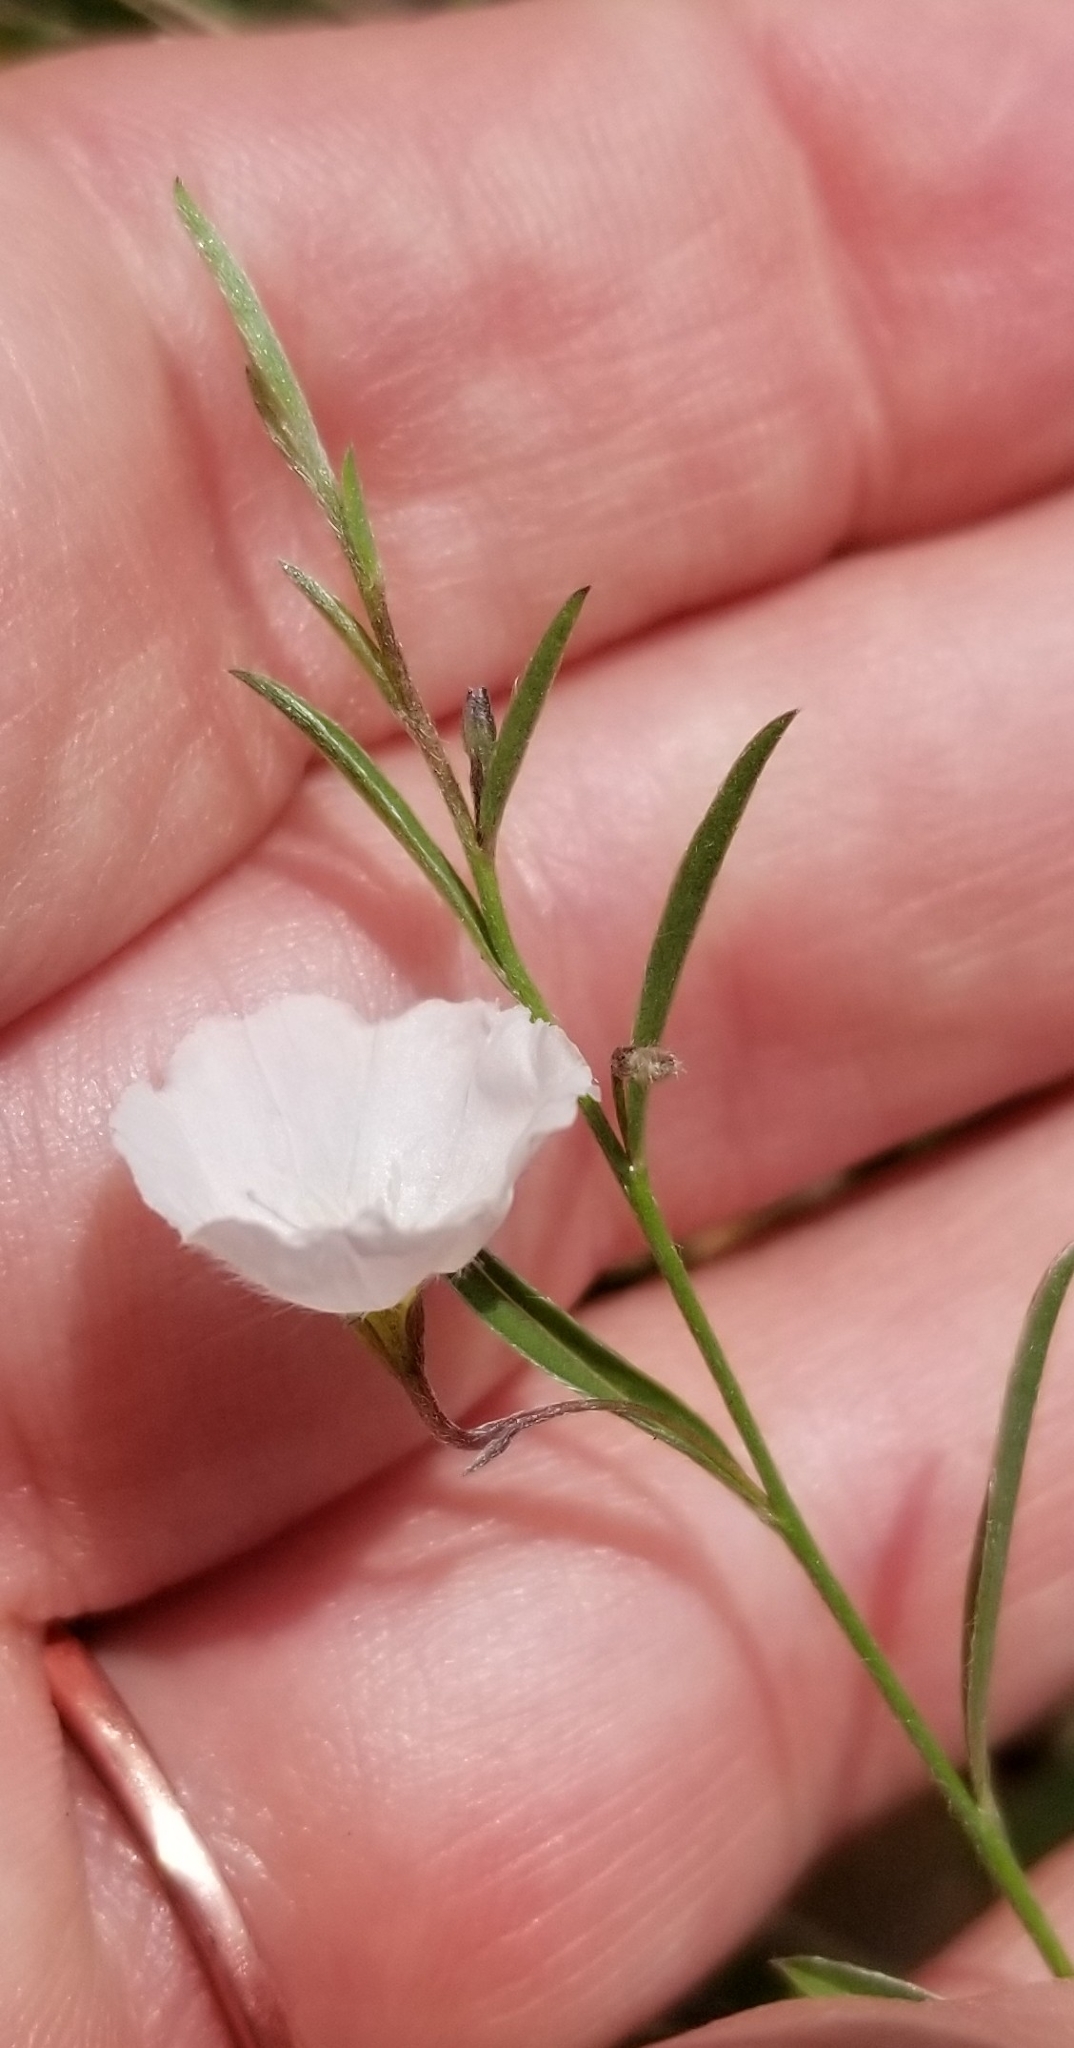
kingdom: Plantae
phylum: Tracheophyta
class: Magnoliopsida
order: Solanales
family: Convolvulaceae
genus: Evolvulus
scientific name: Evolvulus sericeus
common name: Blue dots
